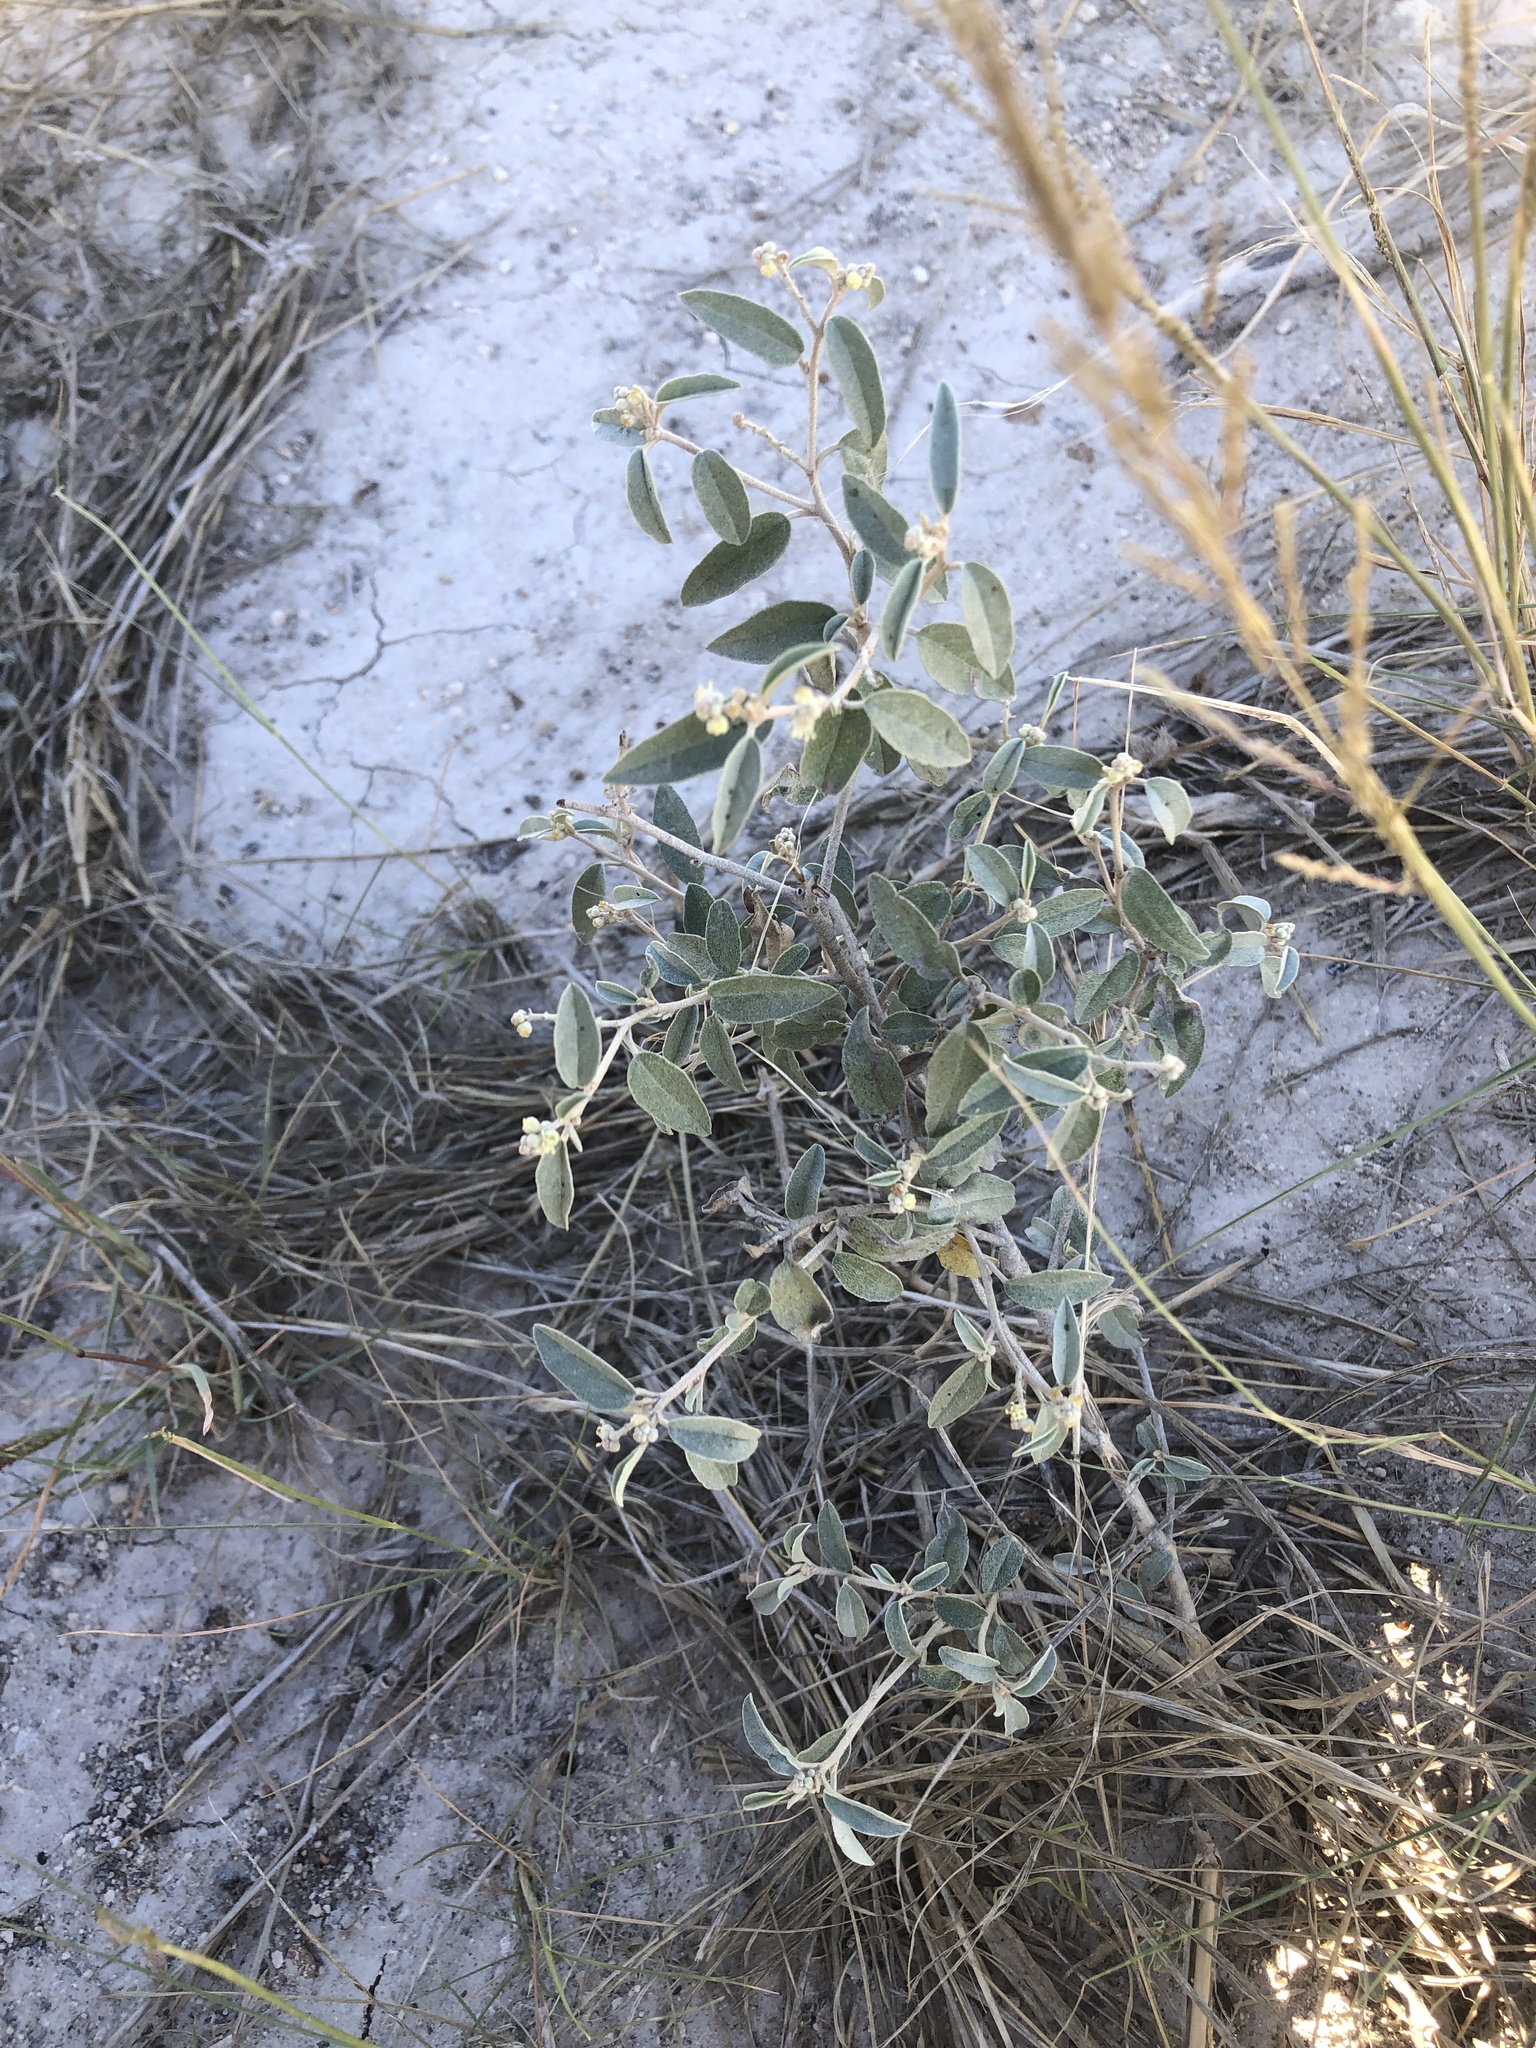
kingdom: Plantae
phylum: Tracheophyta
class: Magnoliopsida
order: Malpighiales
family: Euphorbiaceae
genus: Croton
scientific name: Croton dioicus
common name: Grassland croton
